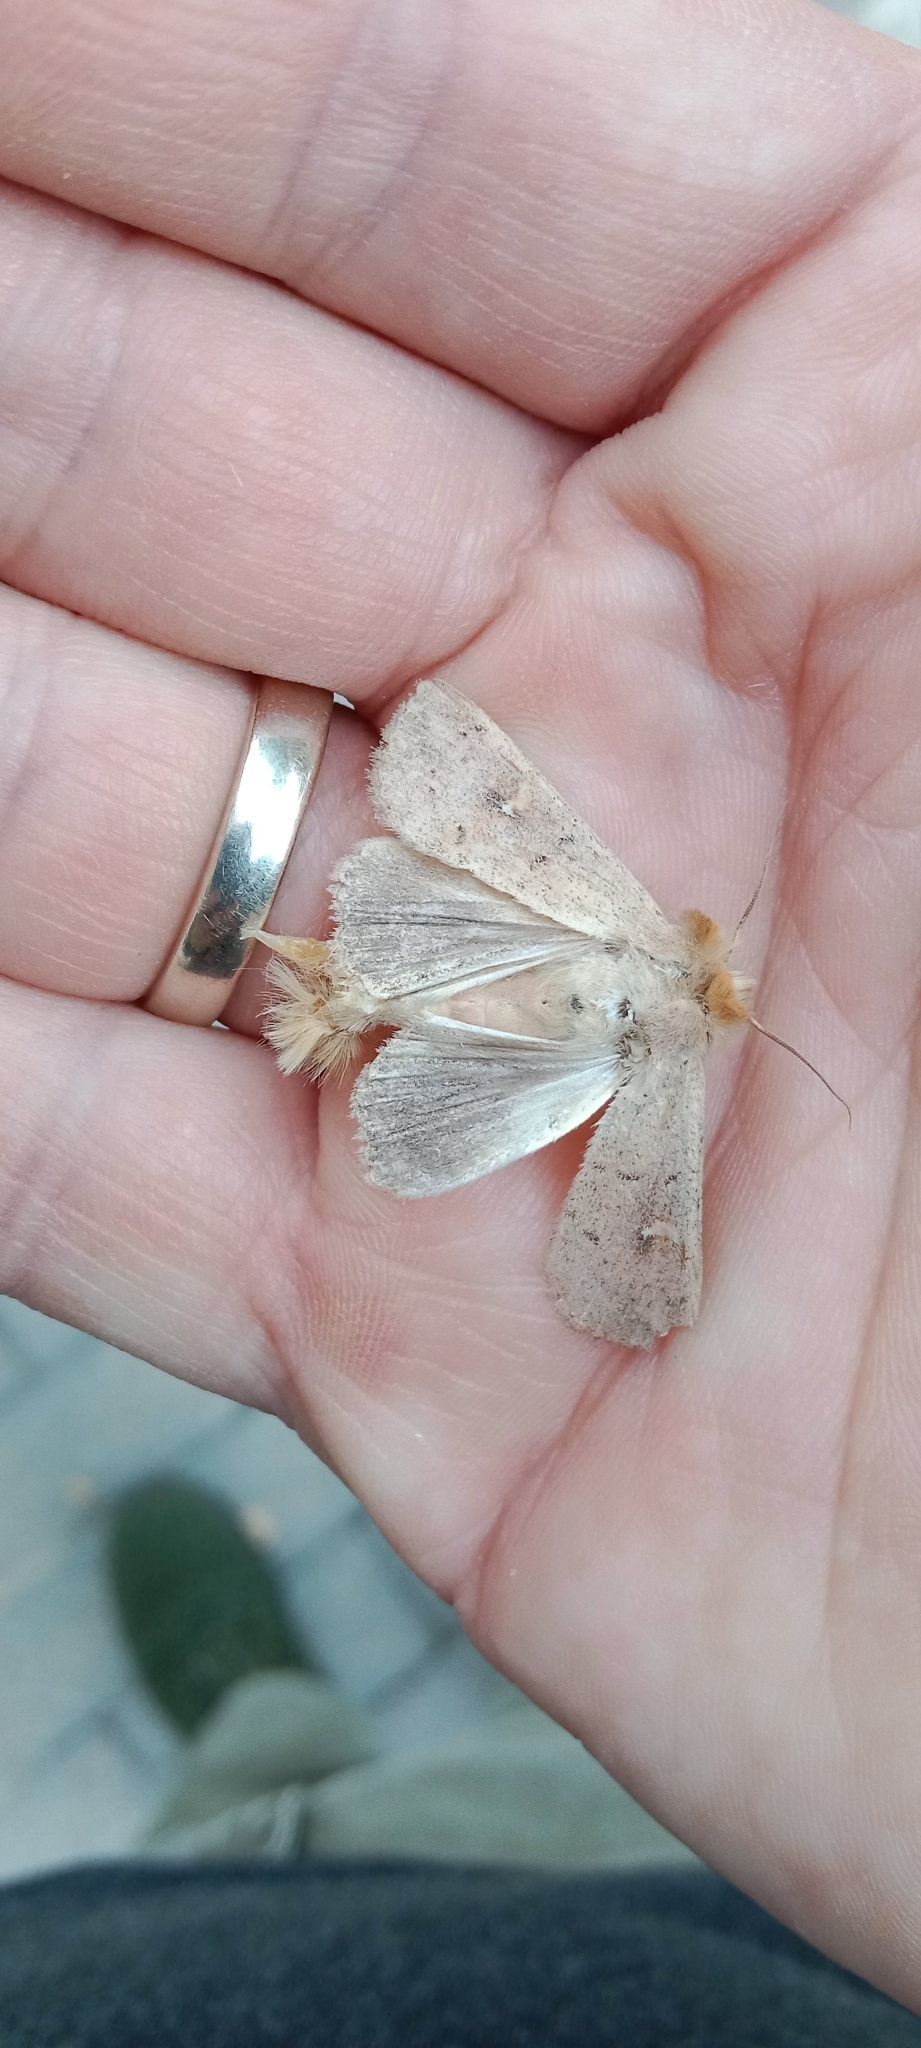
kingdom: Animalia
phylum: Arthropoda
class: Insecta
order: Lepidoptera
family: Noctuidae
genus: Mythimna
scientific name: Mythimna ferrago
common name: Clay
